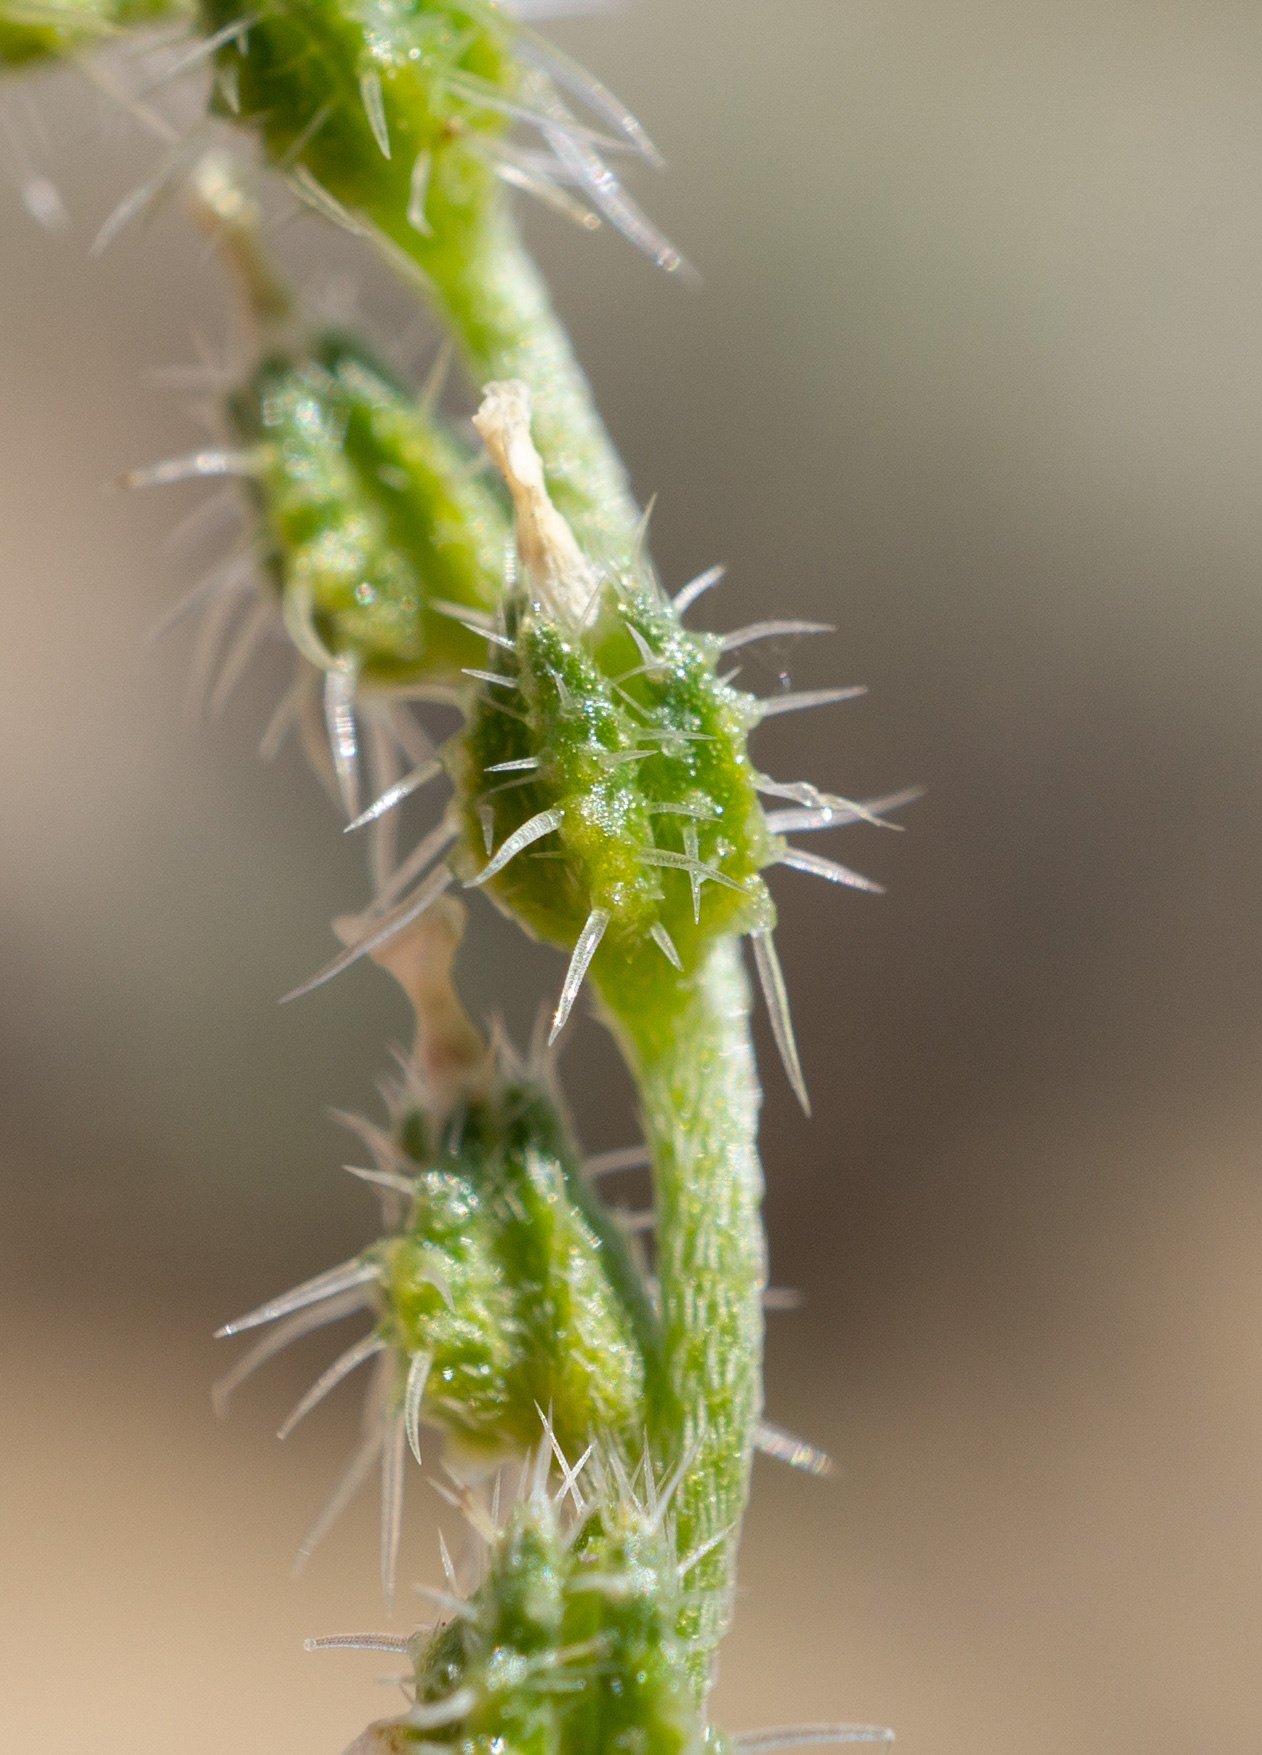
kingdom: Plantae
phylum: Tracheophyta
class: Magnoliopsida
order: Boraginales
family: Boraginaceae
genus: Cryptantha
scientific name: Cryptantha dumetorum
